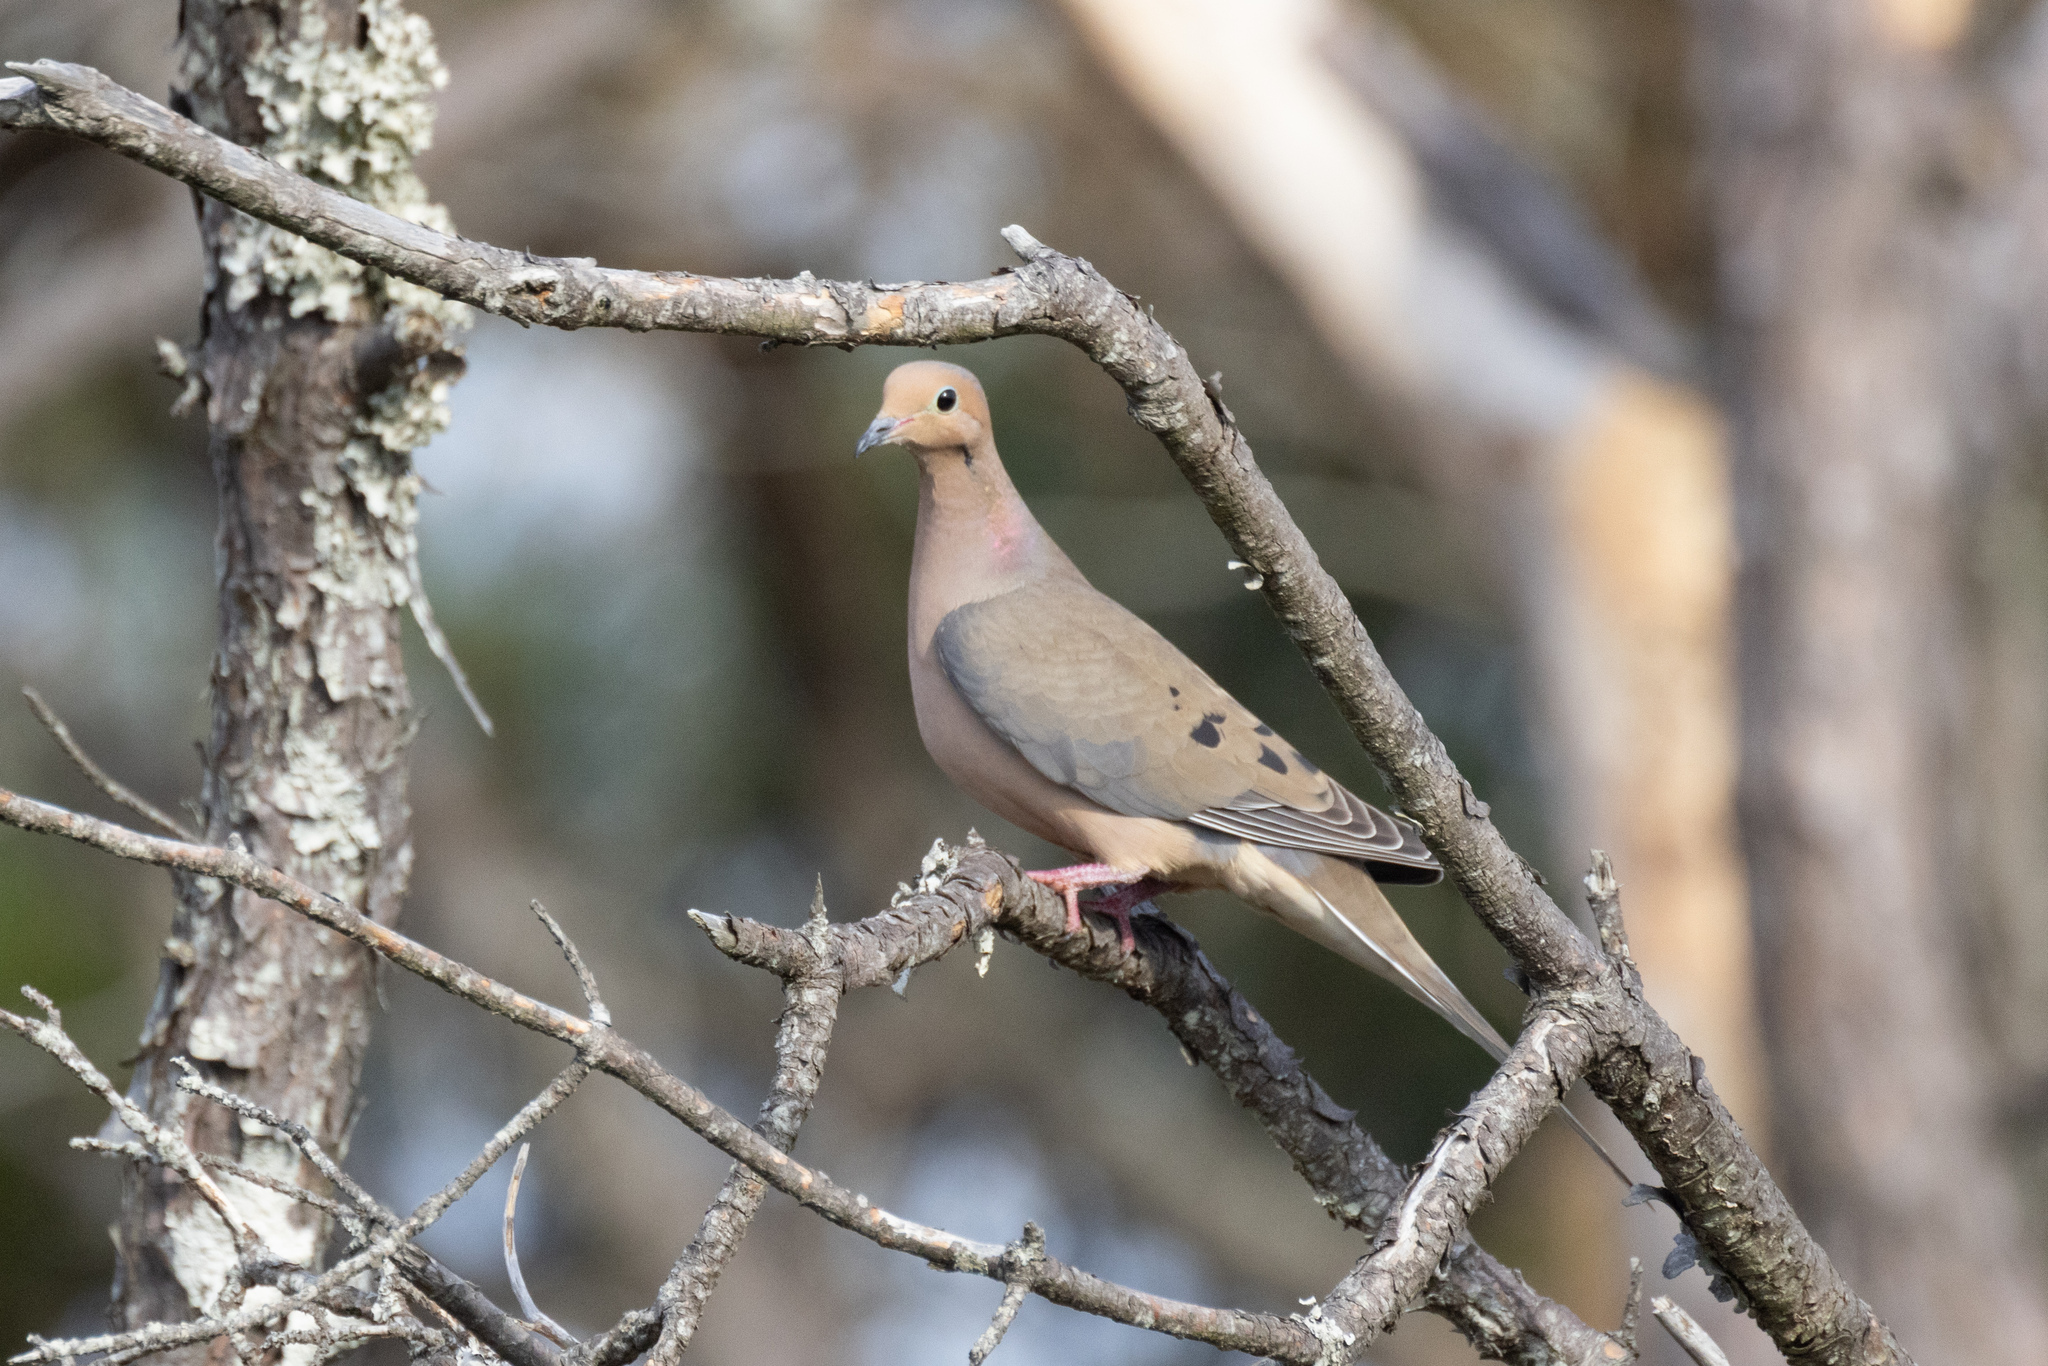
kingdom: Animalia
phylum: Chordata
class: Aves
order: Columbiformes
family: Columbidae
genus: Zenaida
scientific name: Zenaida macroura
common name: Mourning dove
